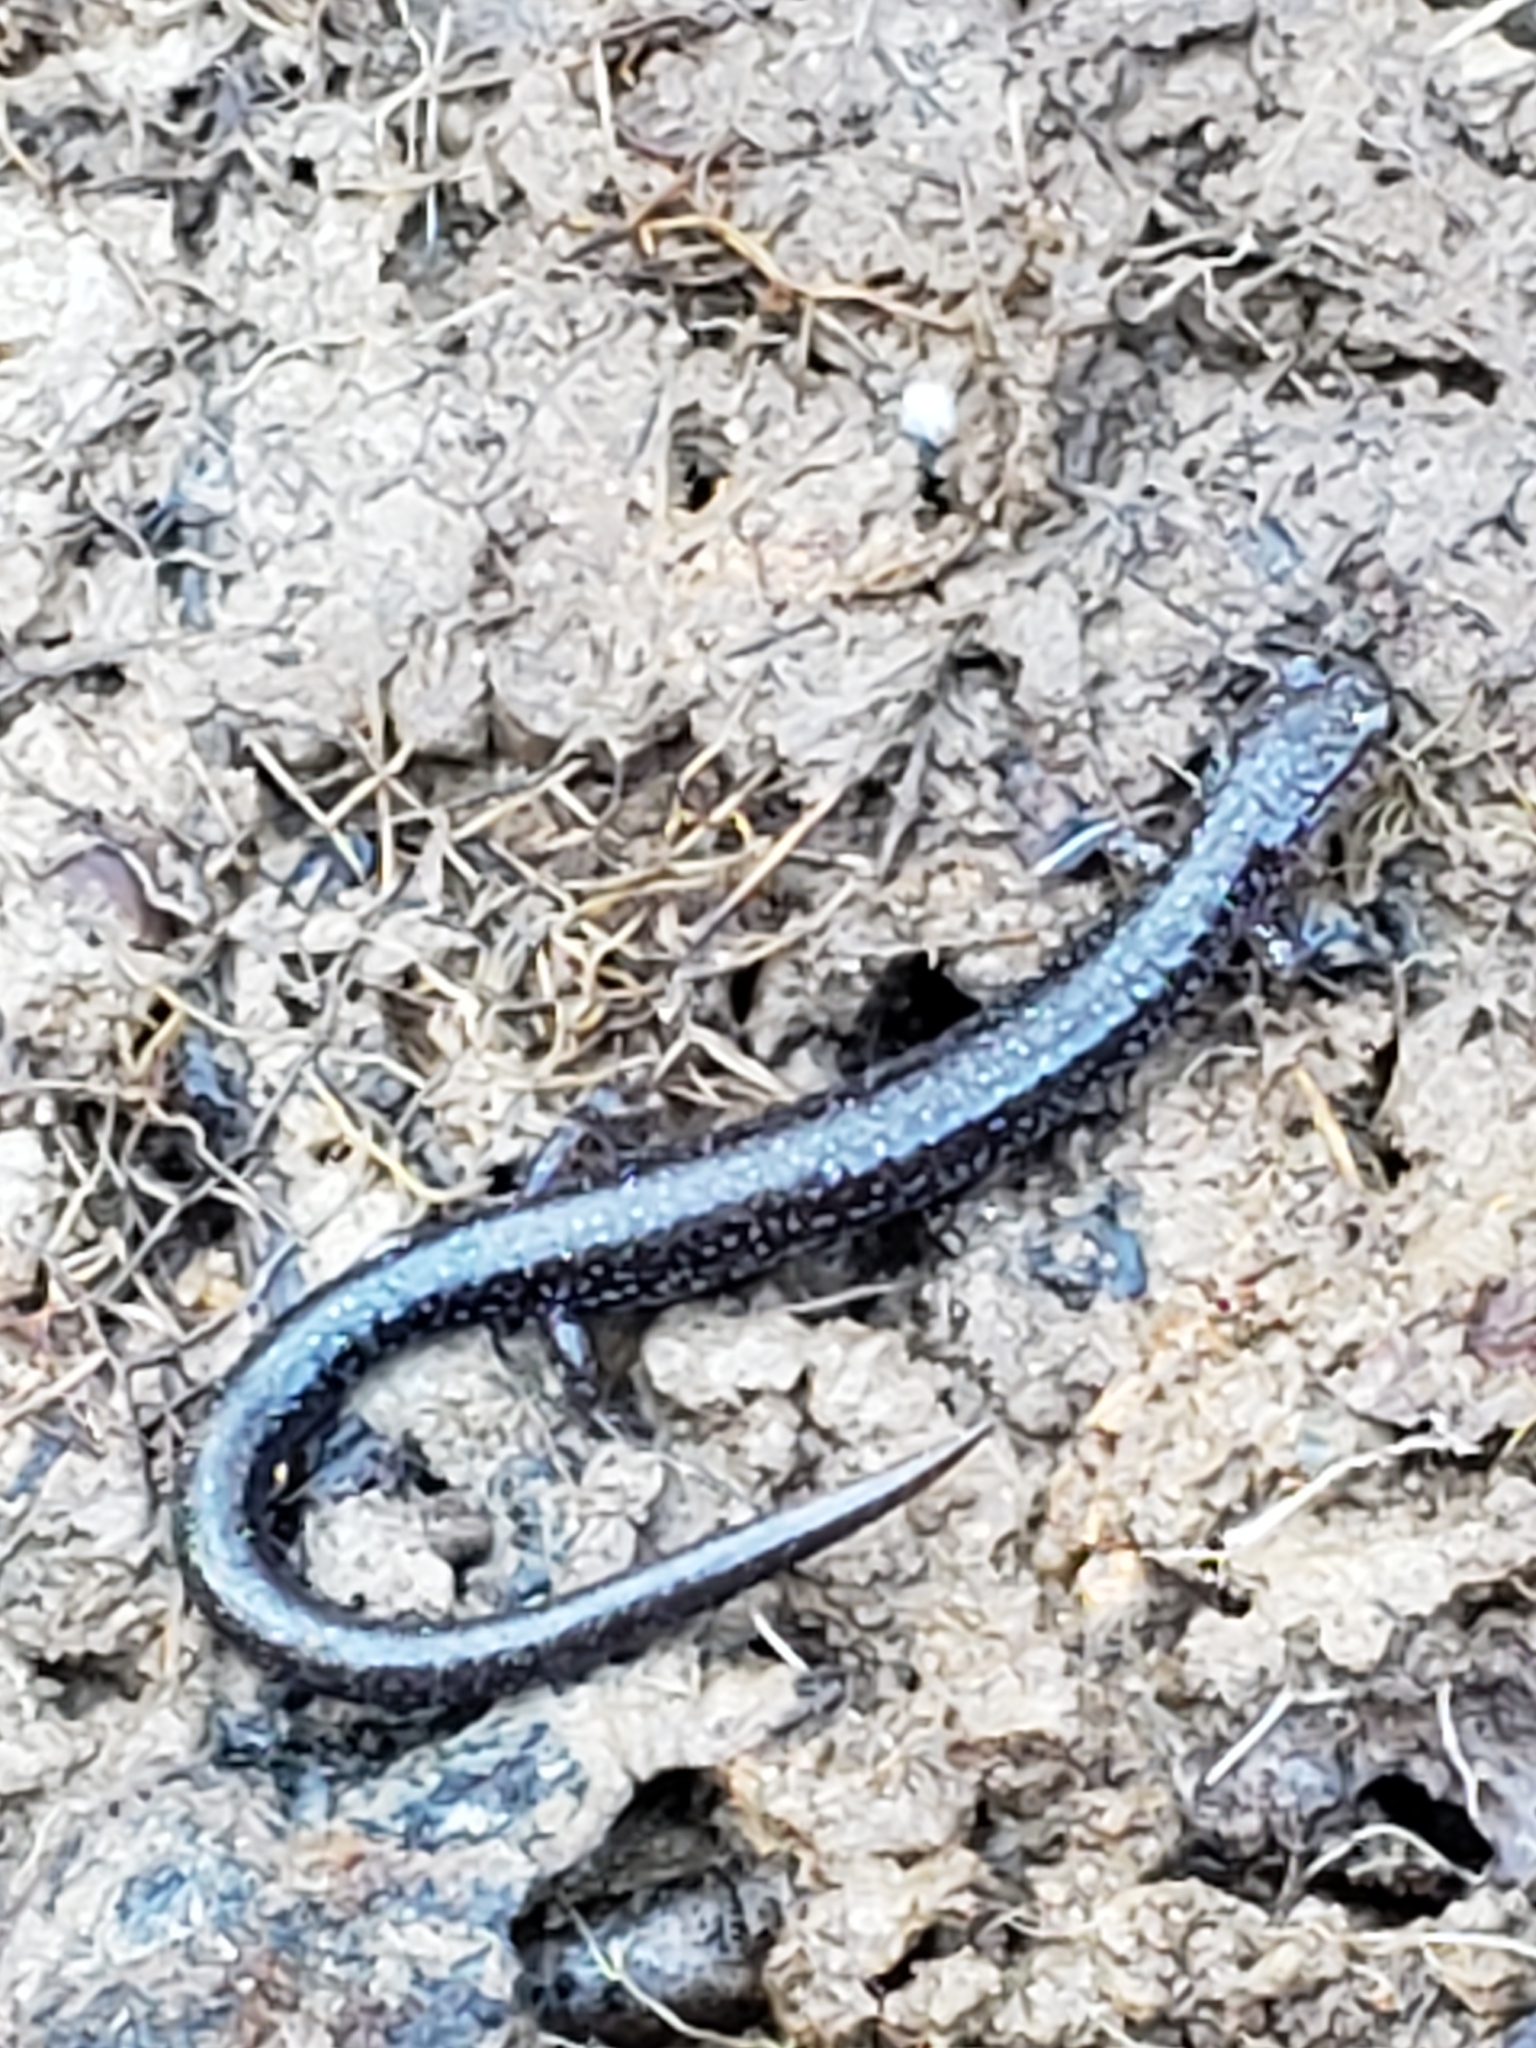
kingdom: Animalia
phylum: Chordata
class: Amphibia
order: Caudata
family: Plethodontidae
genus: Plethodon
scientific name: Plethodon cinereus
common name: Redback salamander
